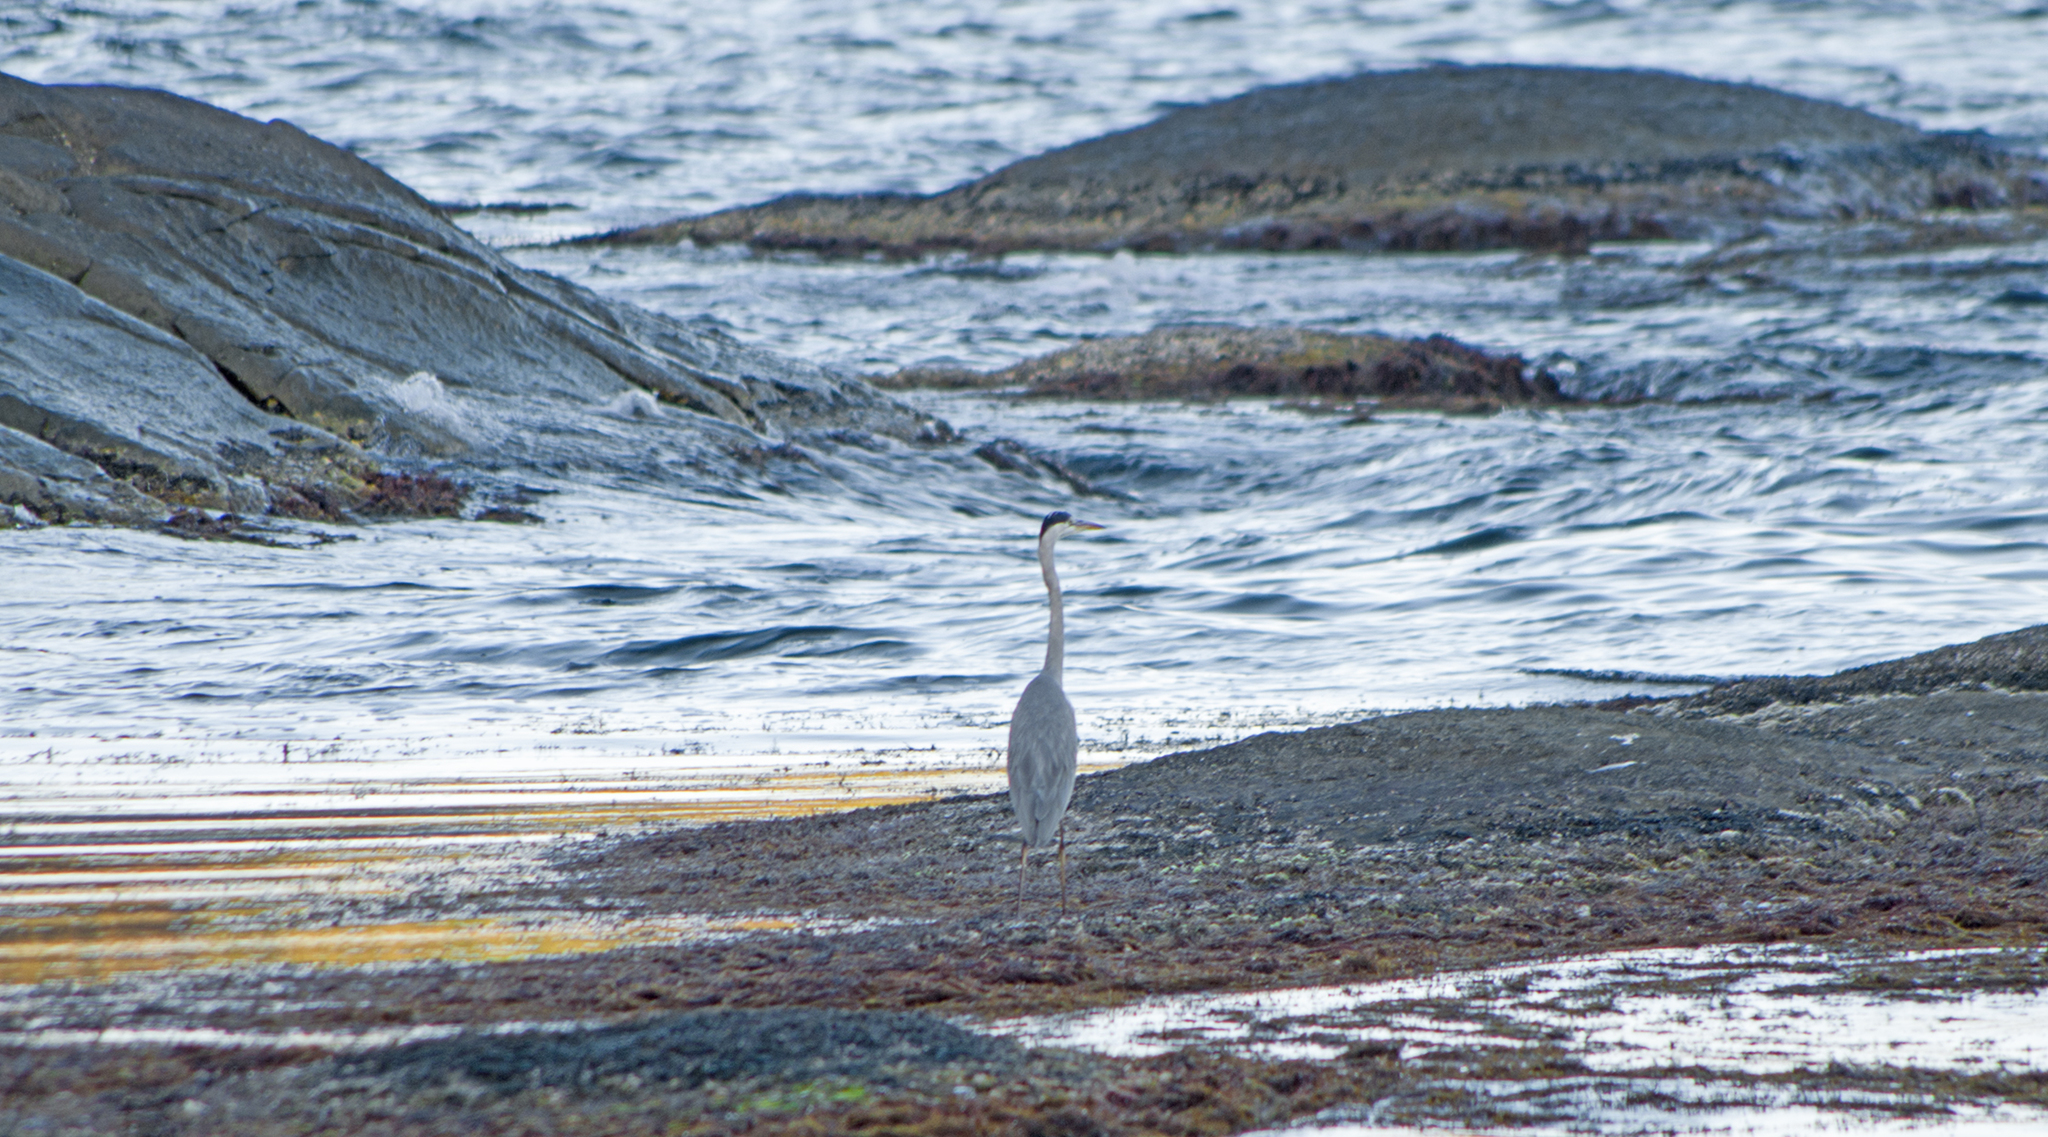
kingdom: Animalia
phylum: Chordata
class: Aves
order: Pelecaniformes
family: Ardeidae
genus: Ardea
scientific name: Ardea cinerea
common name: Grey heron
